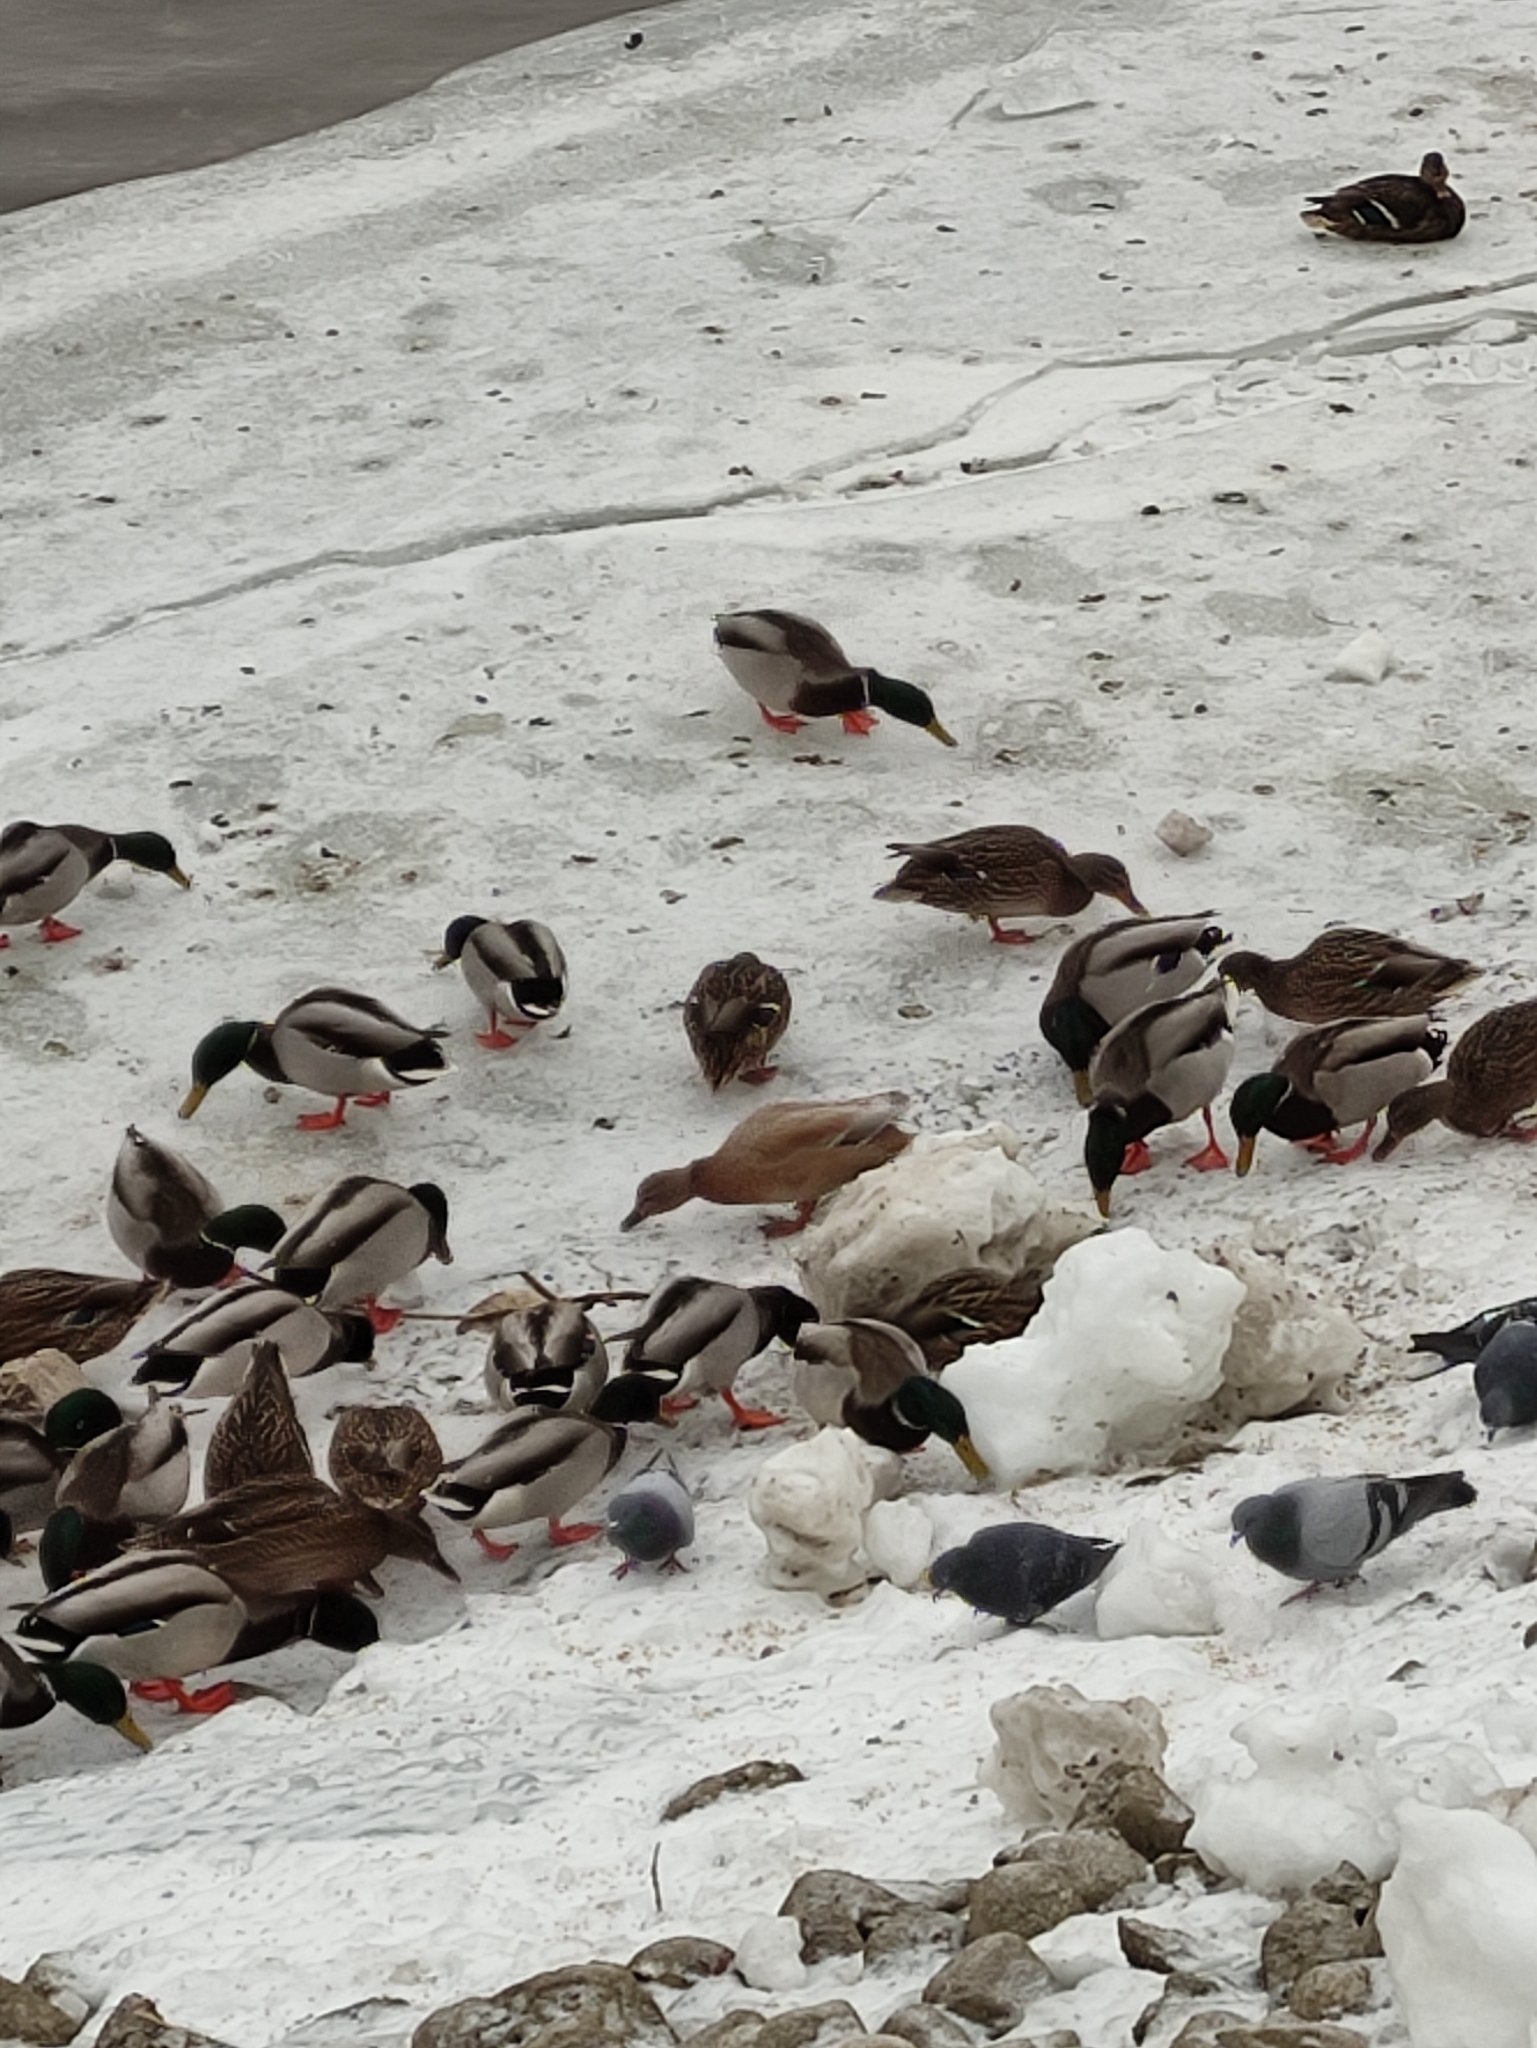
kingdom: Animalia
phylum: Chordata
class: Aves
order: Anseriformes
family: Anatidae
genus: Anas
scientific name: Anas platyrhynchos
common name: Mallard
